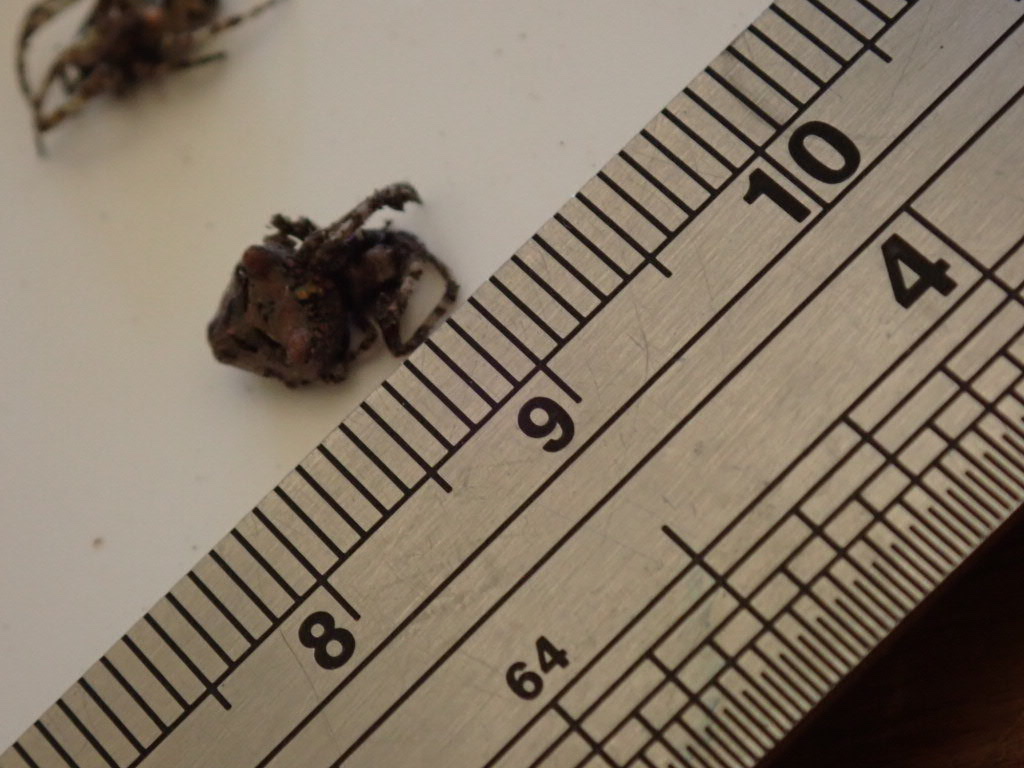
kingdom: Animalia
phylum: Arthropoda
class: Arachnida
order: Araneae
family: Araneidae
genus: Courtaraneus
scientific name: Courtaraneus orientalis
